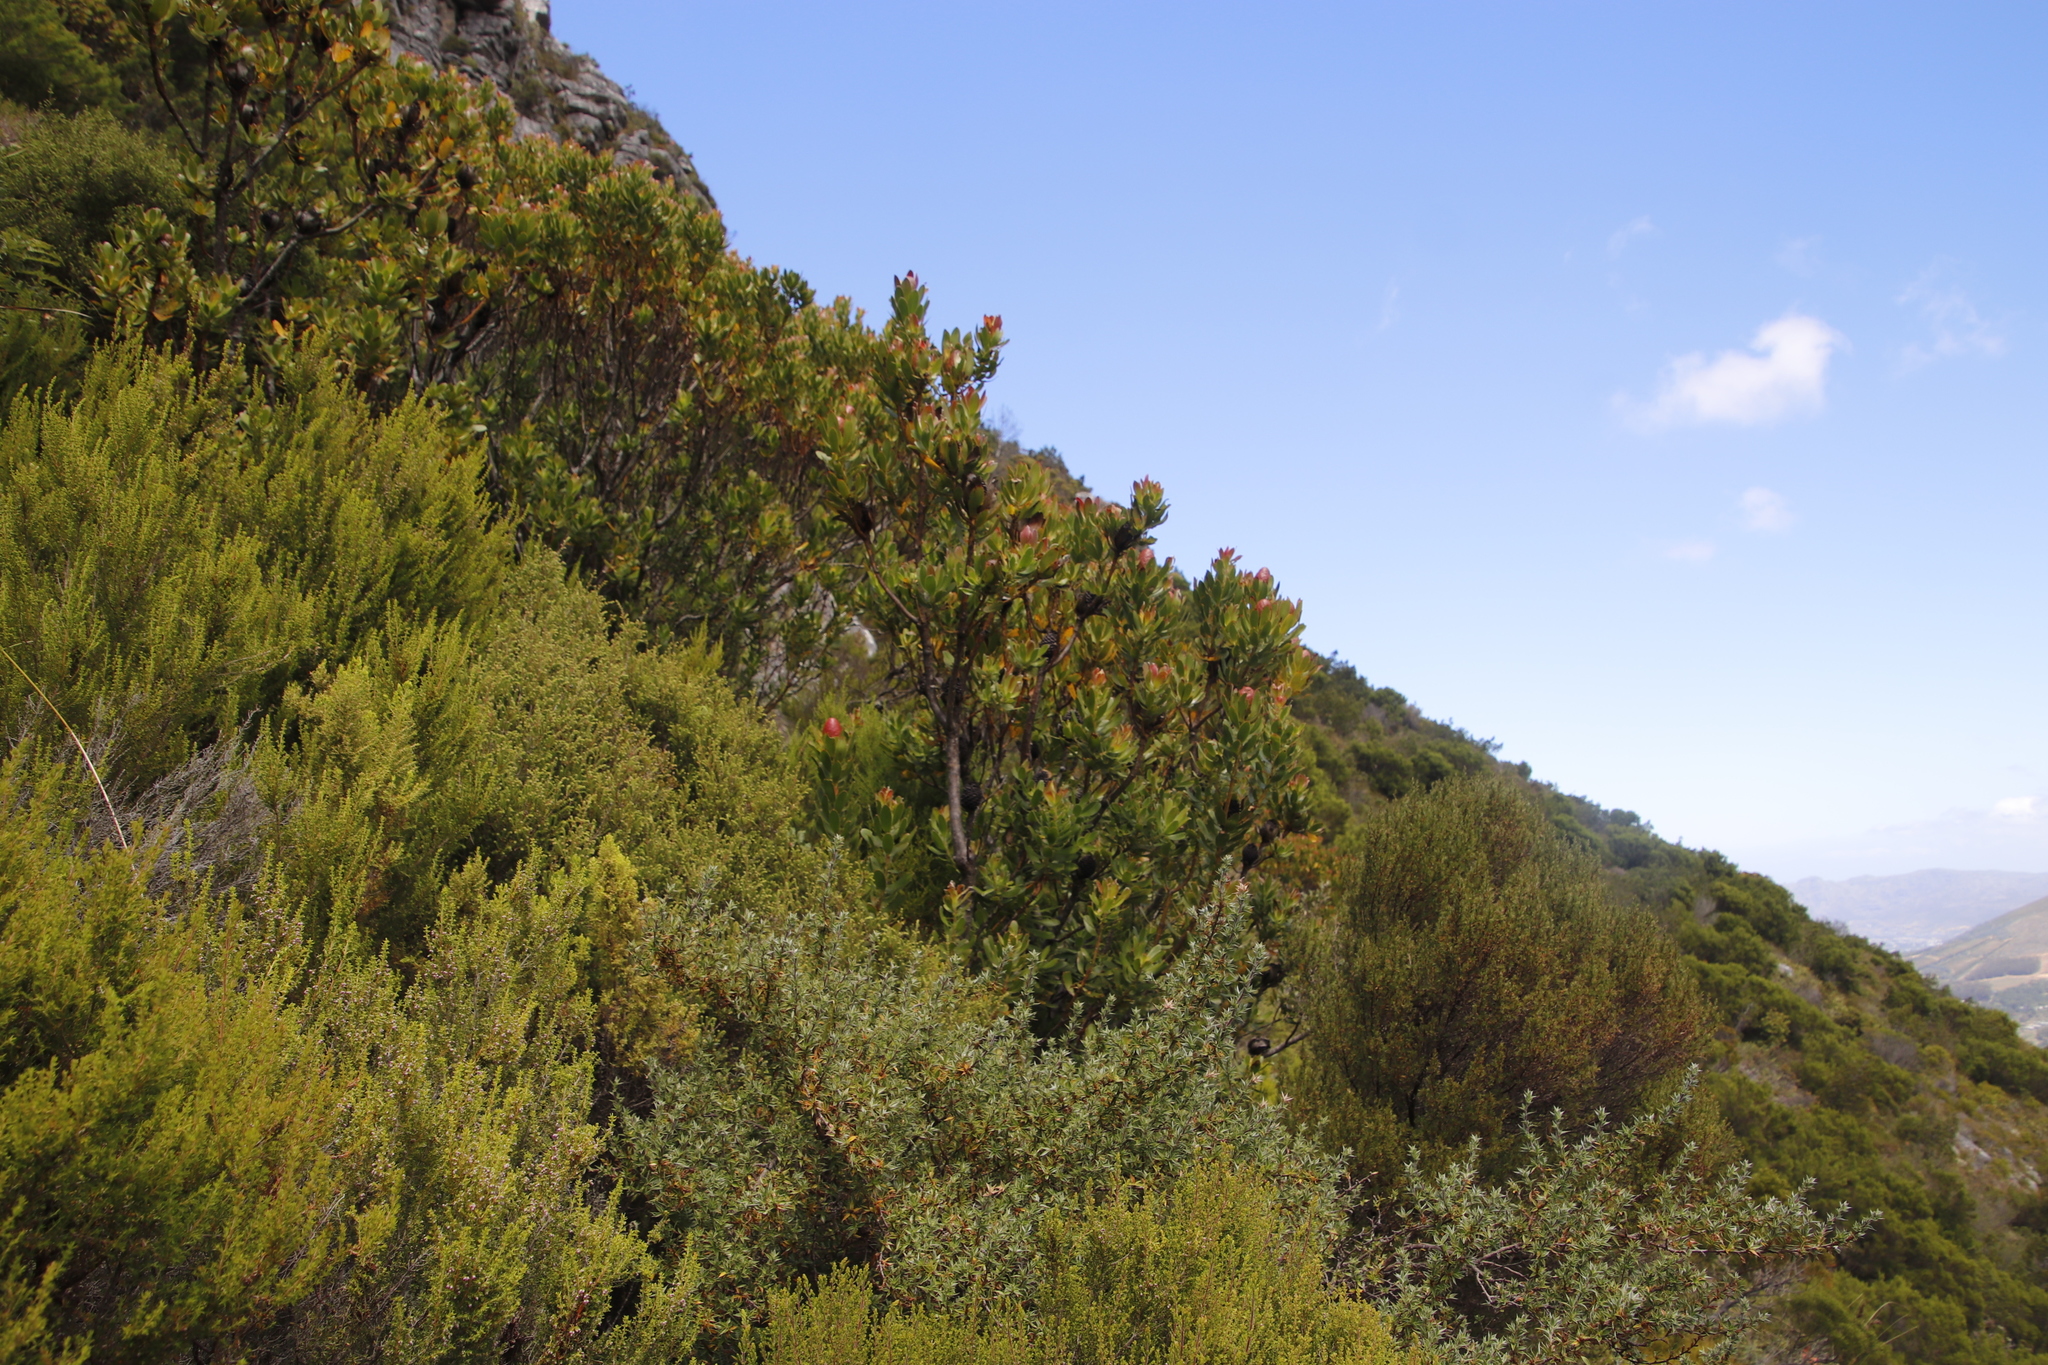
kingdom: Plantae
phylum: Tracheophyta
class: Magnoliopsida
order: Proteales
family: Proteaceae
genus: Leucadendron
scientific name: Leucadendron strobilinum
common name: Mountain rose
